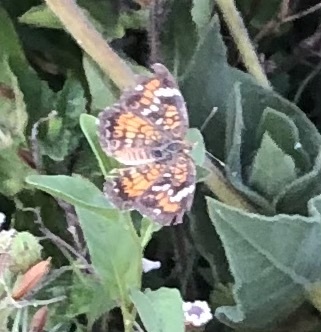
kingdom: Animalia
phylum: Arthropoda
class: Insecta
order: Lepidoptera
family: Nymphalidae
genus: Phyciodes
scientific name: Phyciodes phaon
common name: Phaon crescent
